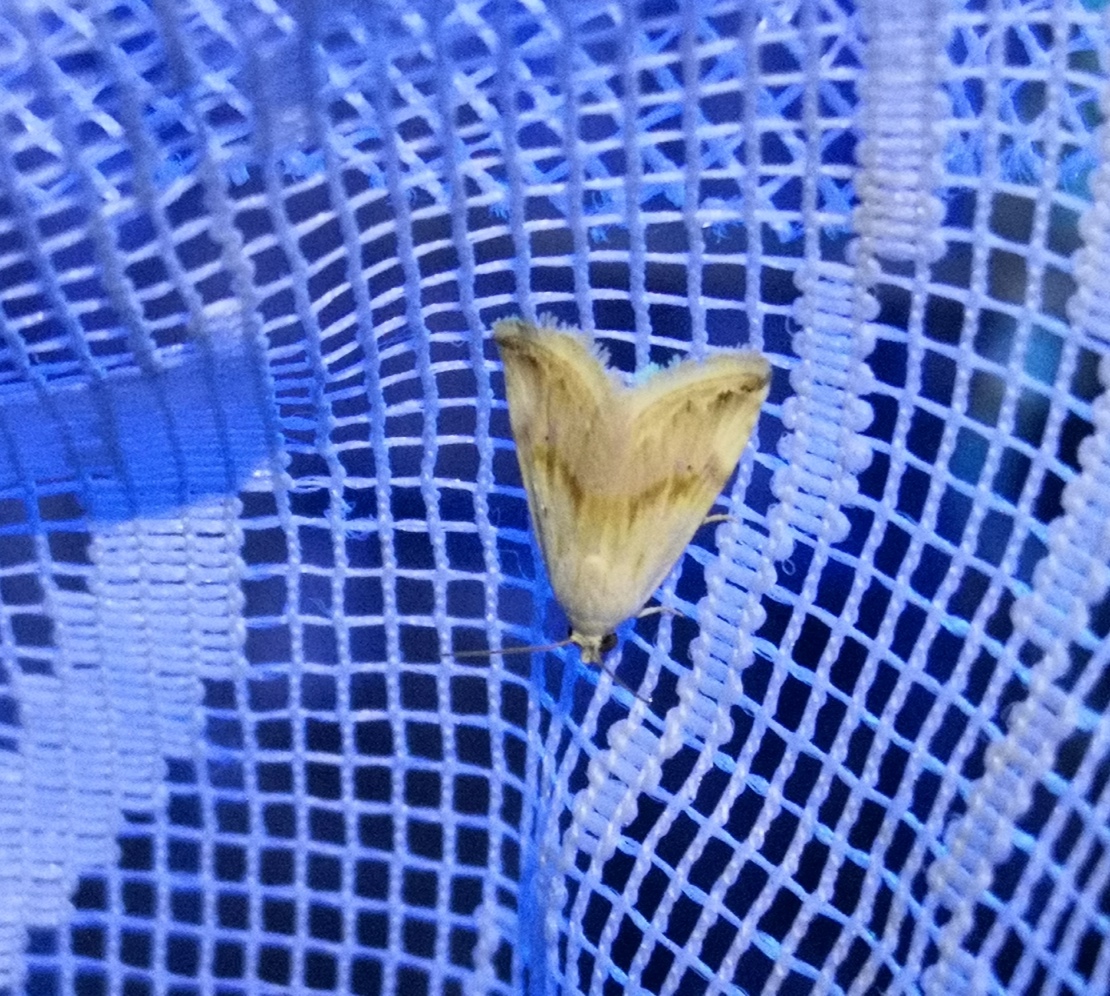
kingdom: Animalia
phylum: Arthropoda
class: Insecta
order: Lepidoptera
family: Noctuidae
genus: Eublemma
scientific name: Eublemma ostrina
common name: Purple marbled
